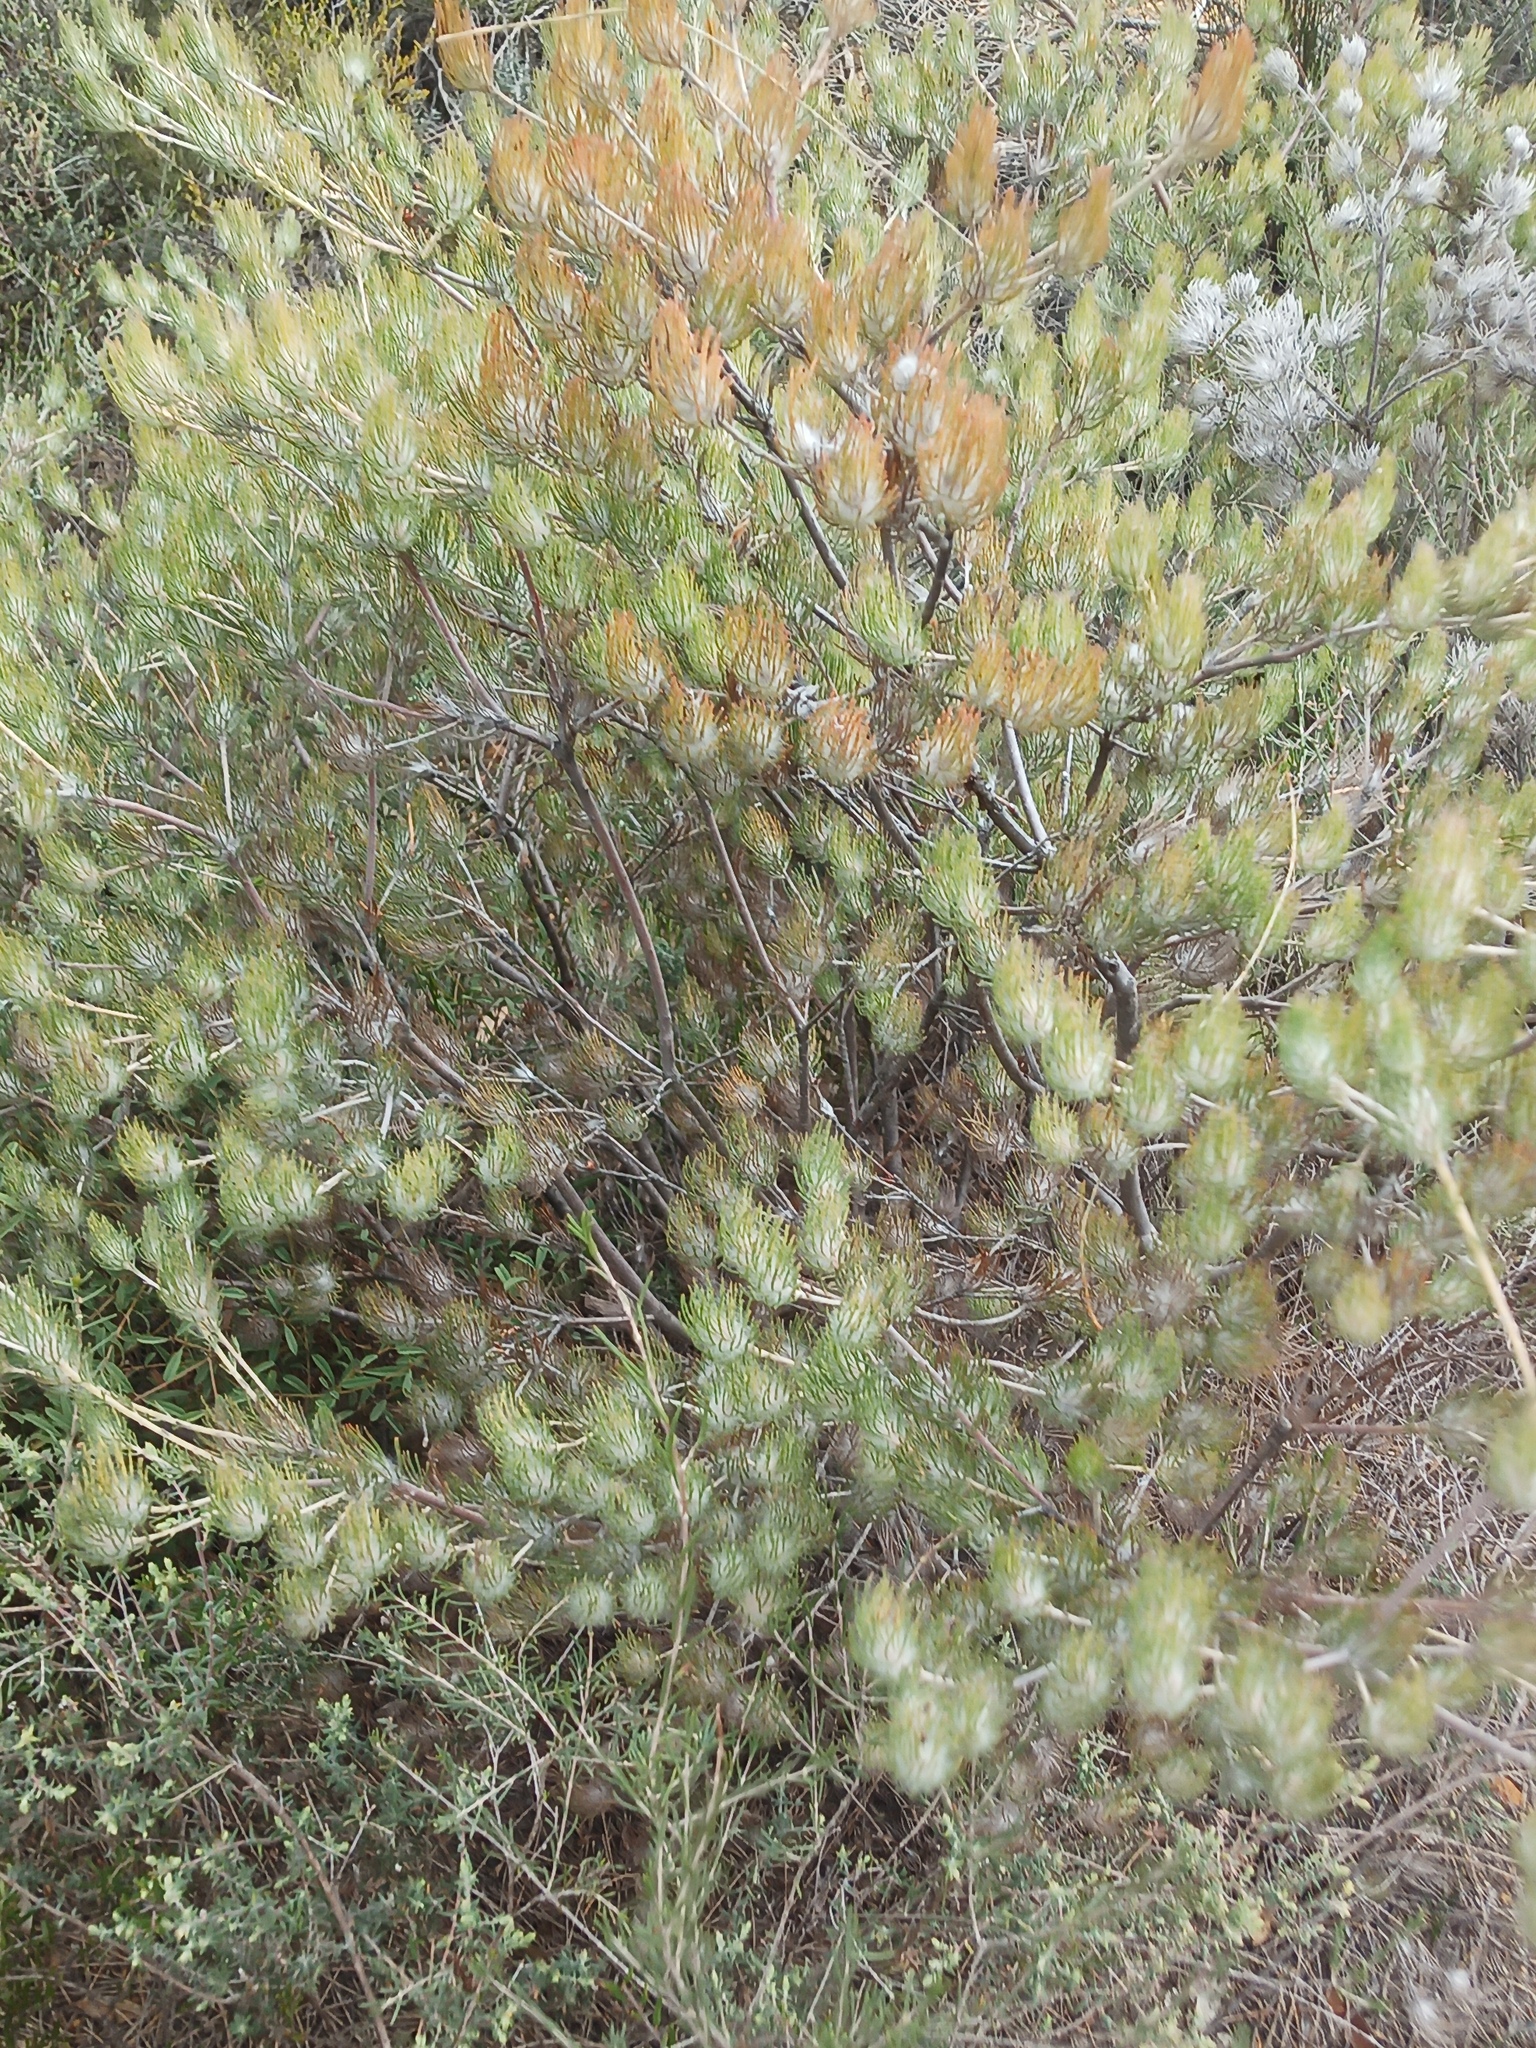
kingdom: Plantae
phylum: Tracheophyta
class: Magnoliopsida
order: Proteales
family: Proteaceae
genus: Adenanthos
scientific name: Adenanthos cygnorum
